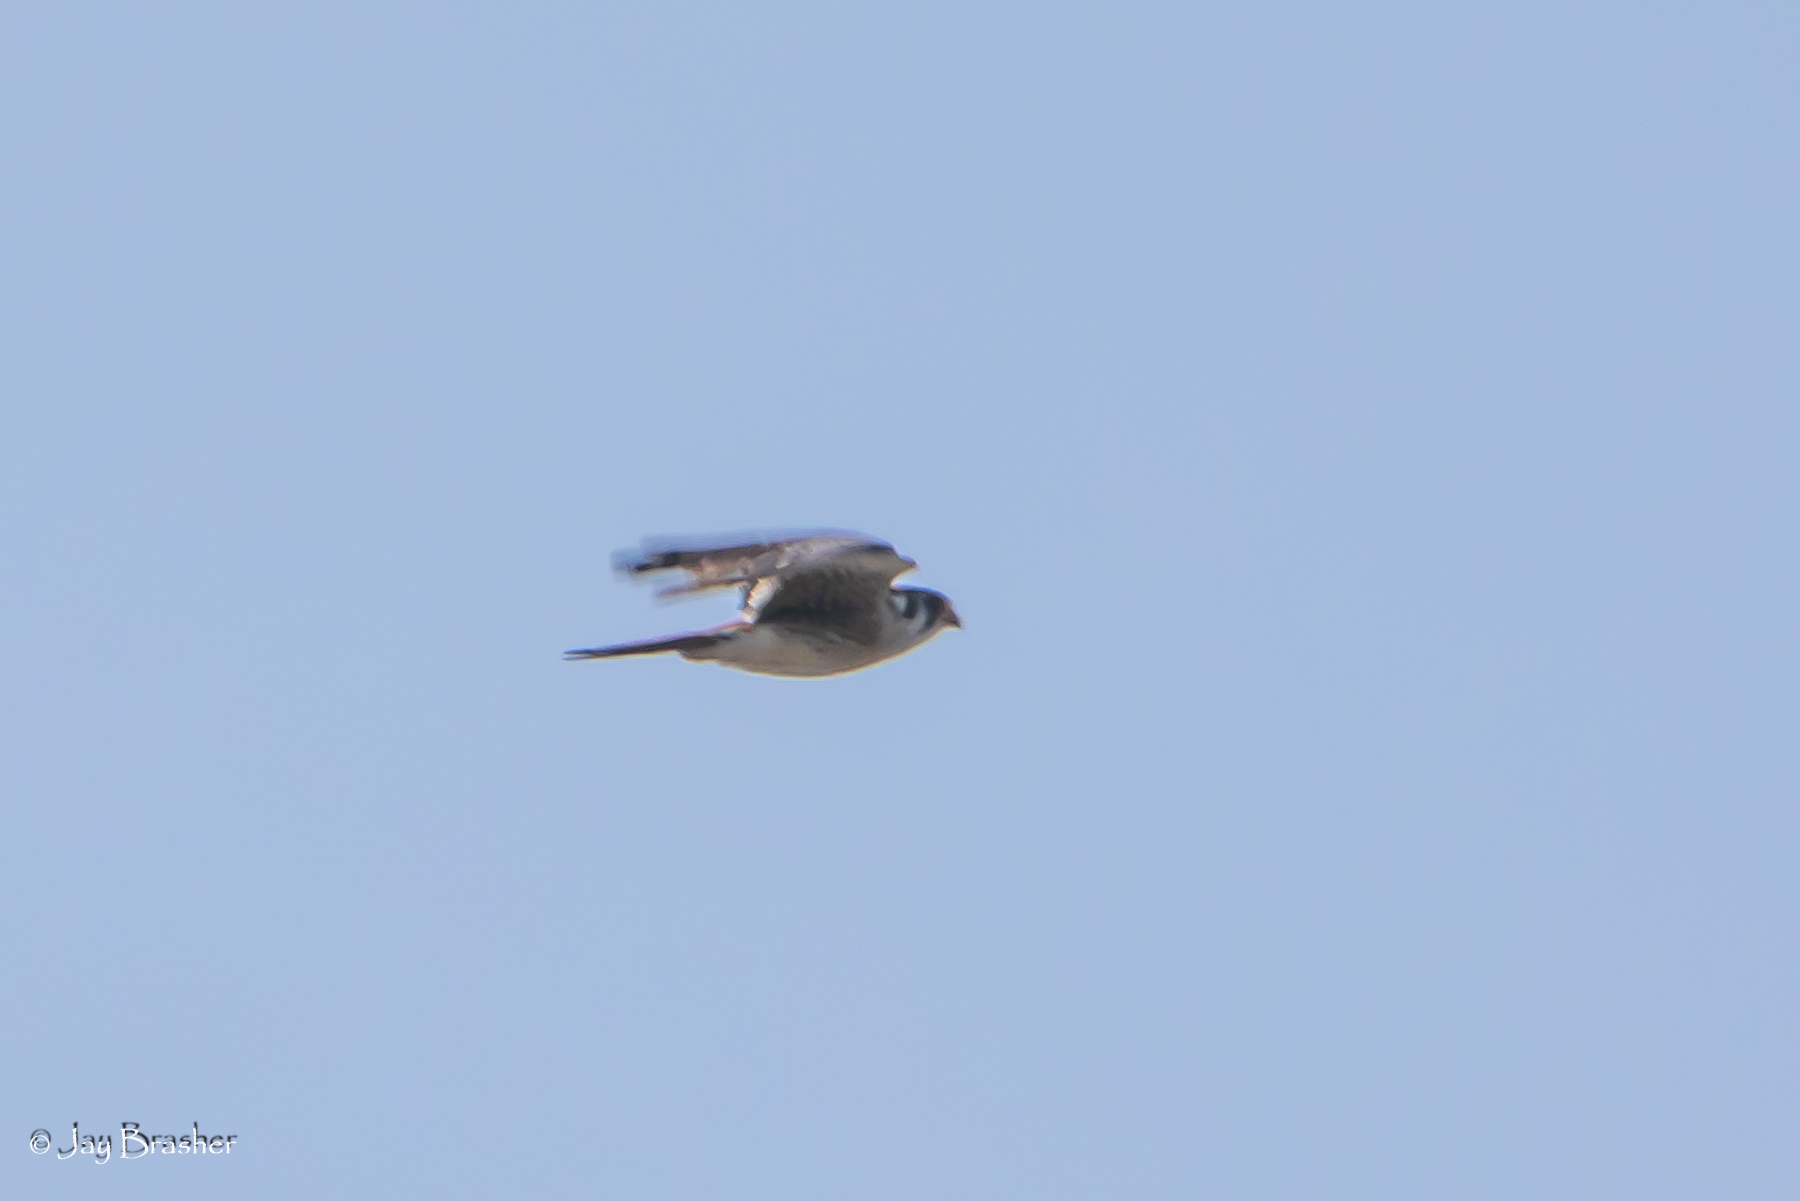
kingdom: Animalia
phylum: Chordata
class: Aves
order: Falconiformes
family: Falconidae
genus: Falco
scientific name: Falco sparverius
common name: American kestrel
